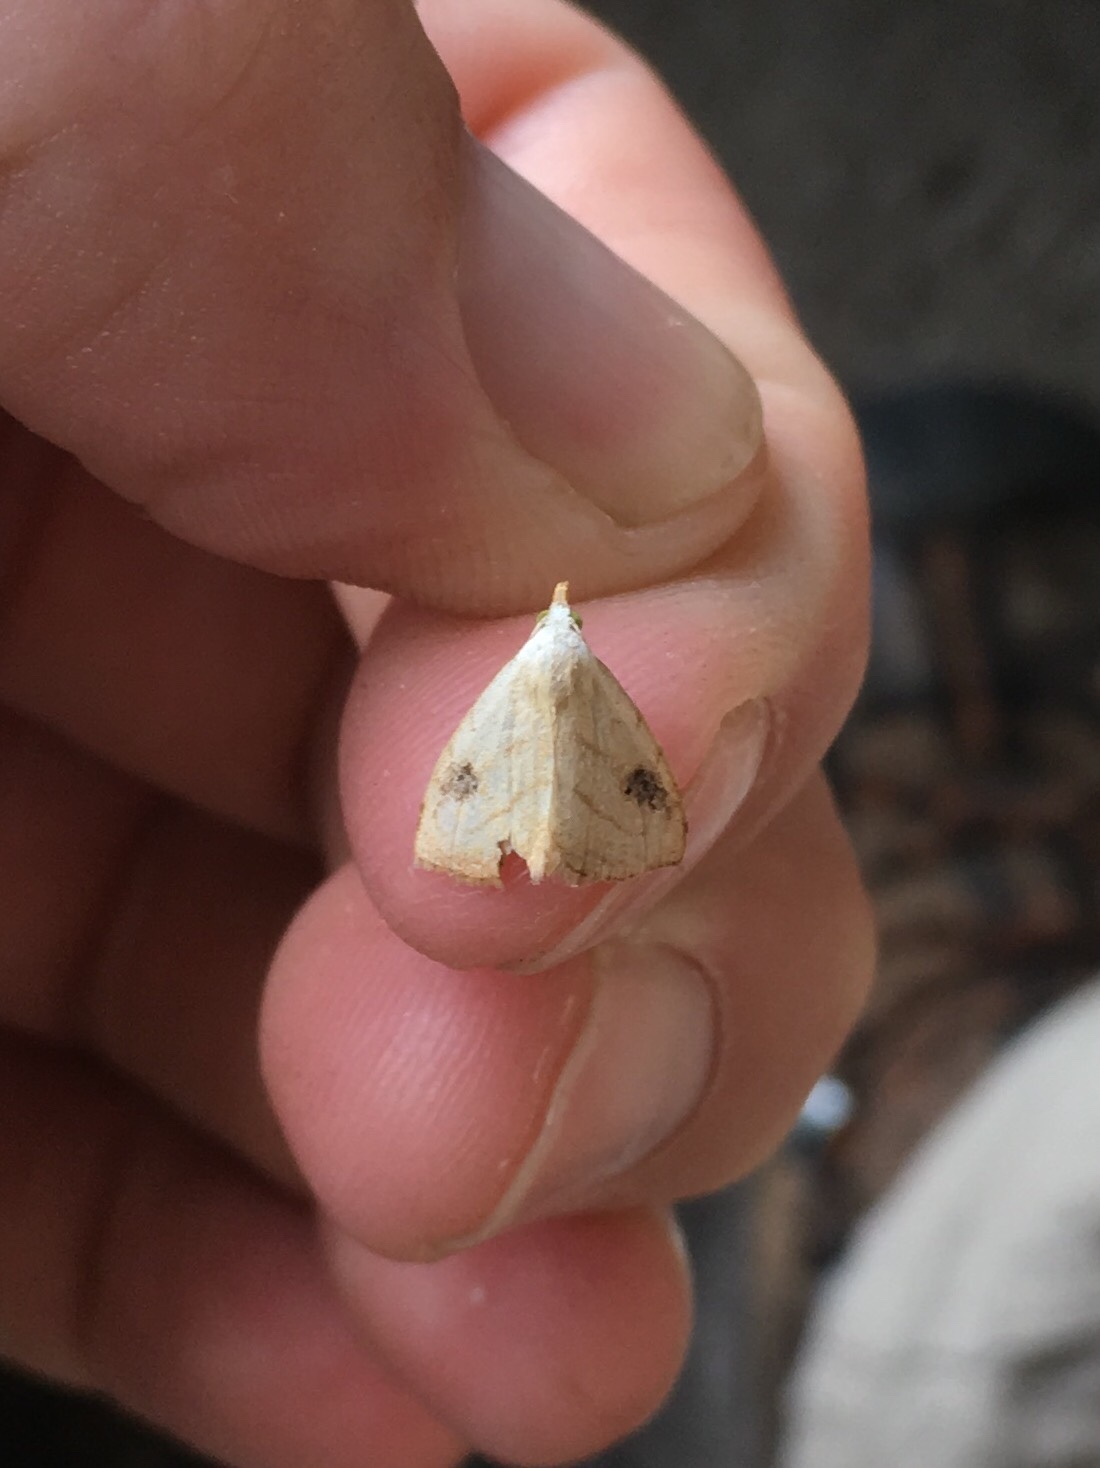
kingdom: Animalia
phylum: Arthropoda
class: Insecta
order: Lepidoptera
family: Erebidae
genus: Rivula
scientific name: Rivula propinqualis
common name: Spotted grass moth
